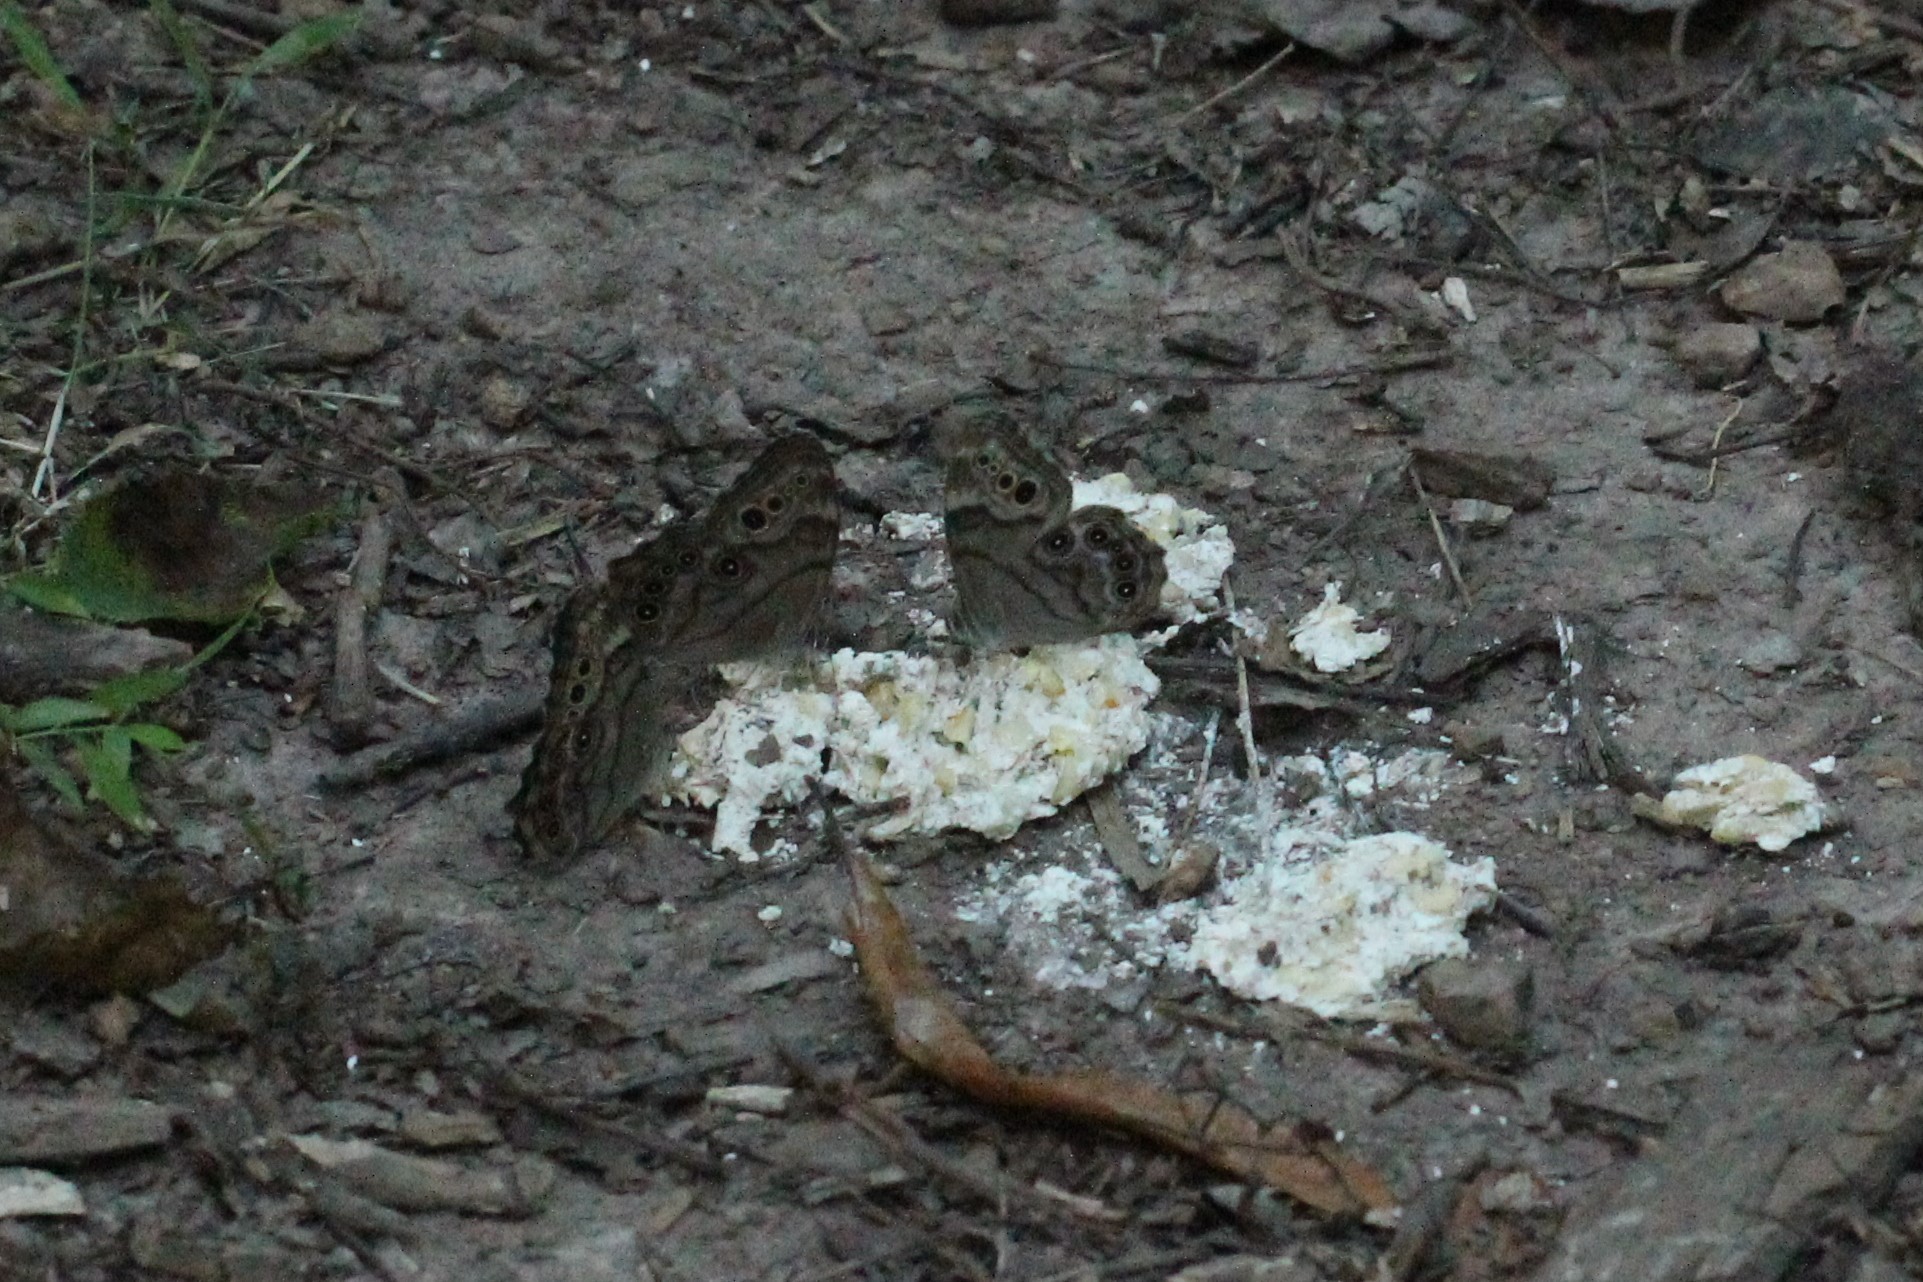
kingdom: Animalia
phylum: Arthropoda
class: Insecta
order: Lepidoptera
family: Nymphalidae
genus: Lethe
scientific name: Lethe anthedon
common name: Northern pearly-eye
